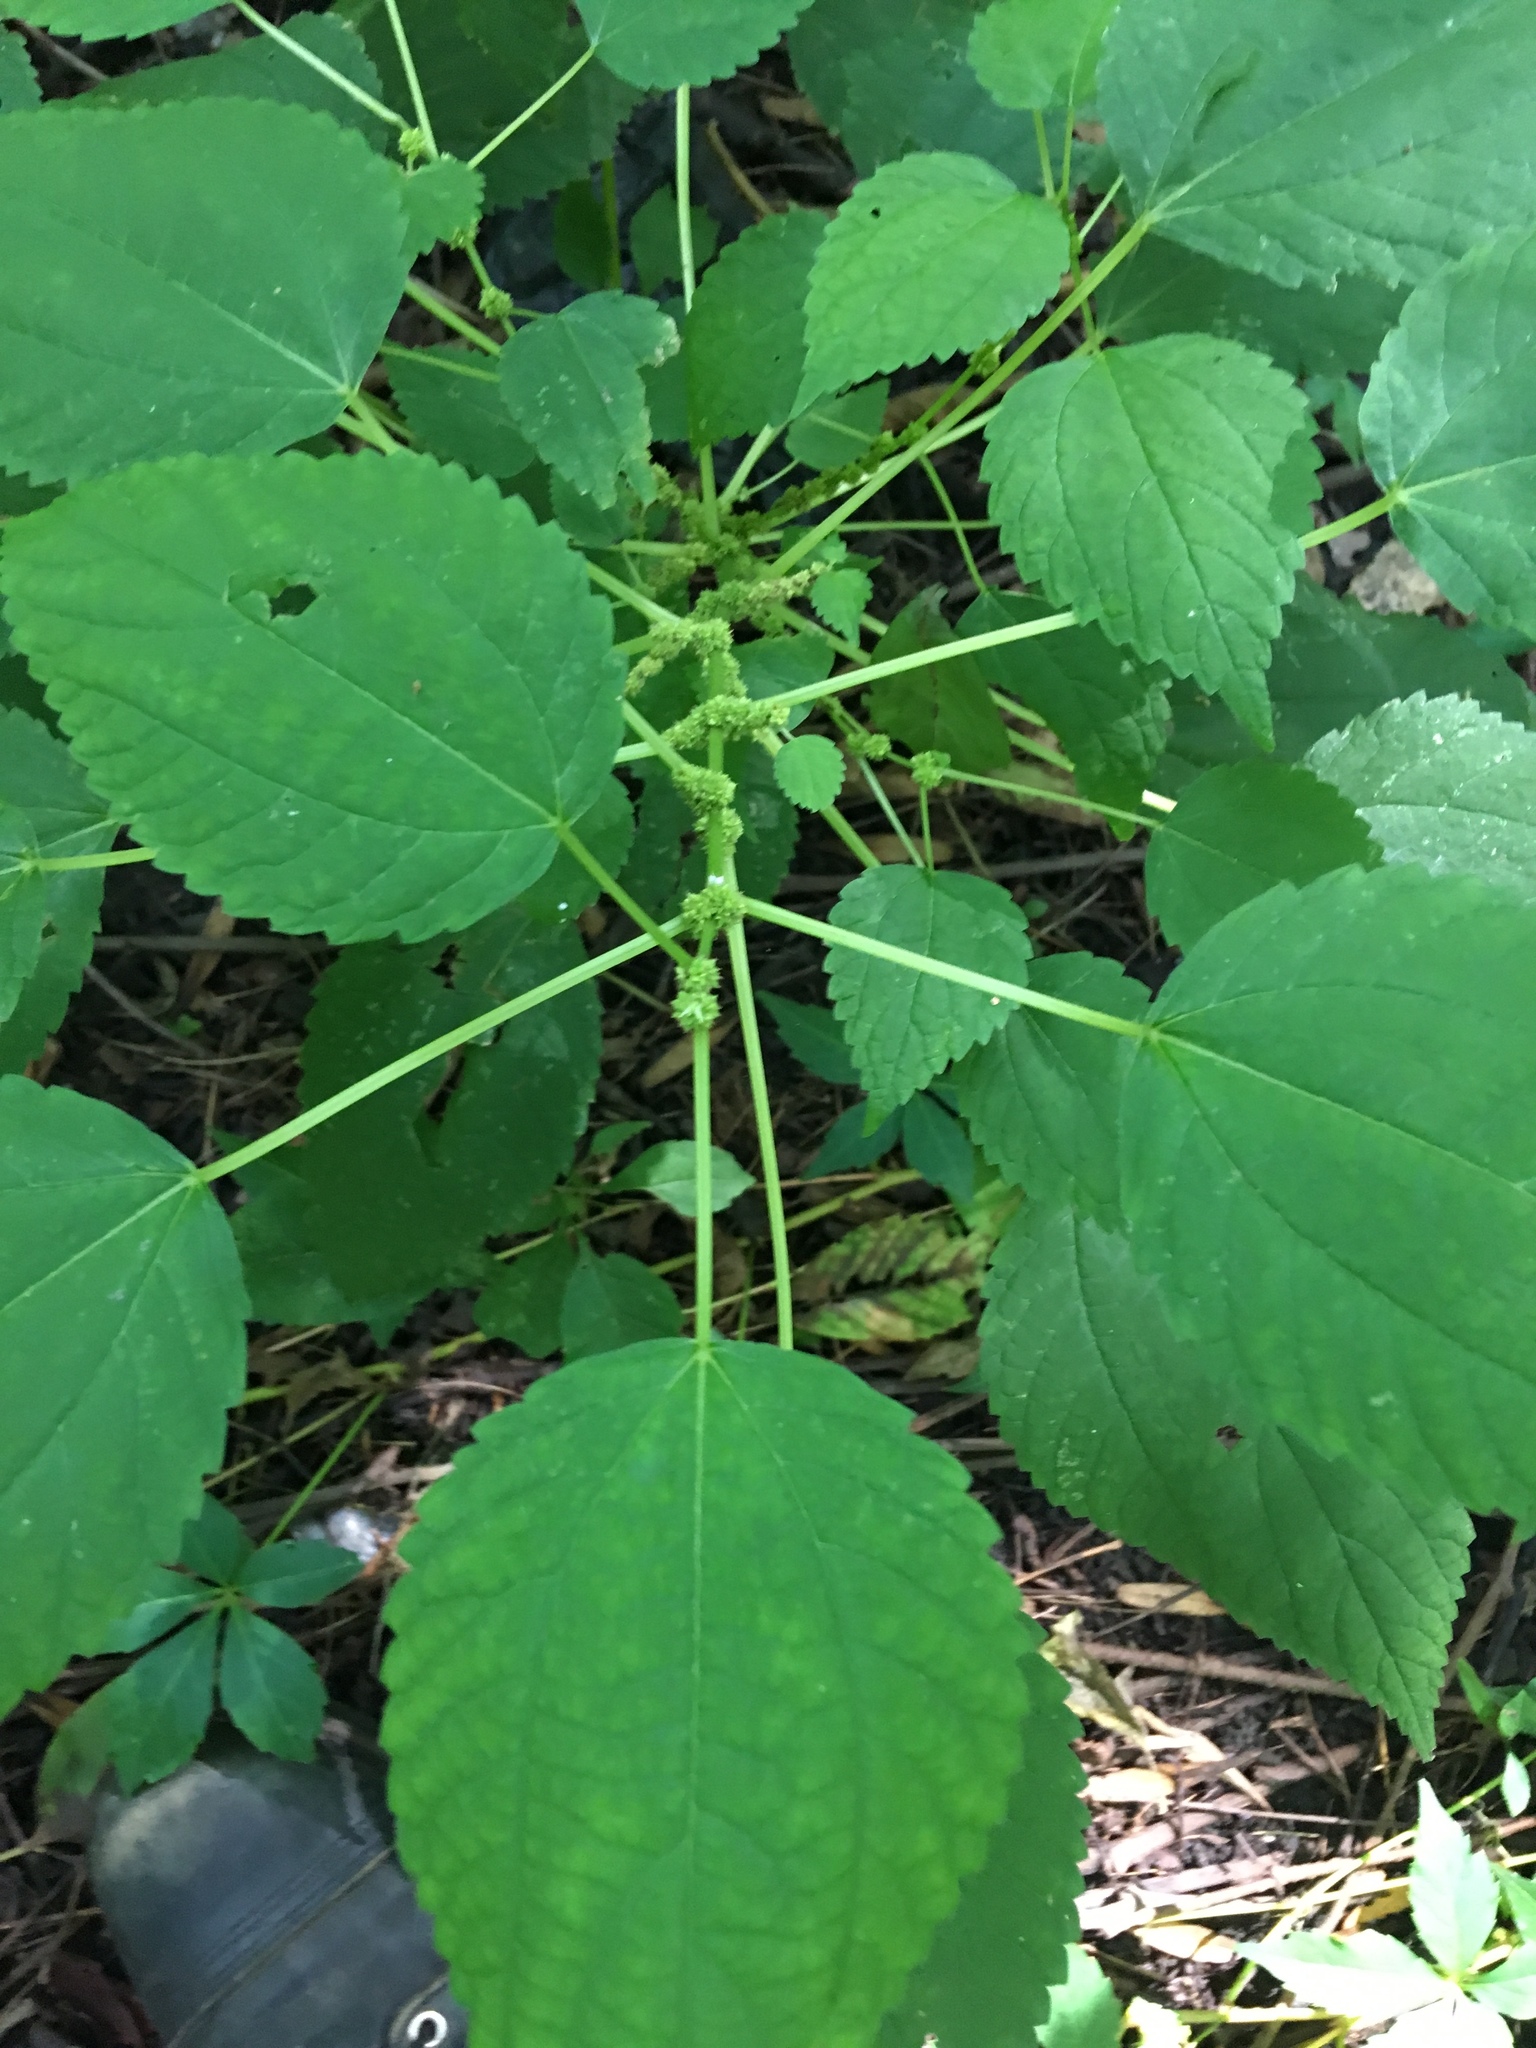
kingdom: Plantae
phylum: Tracheophyta
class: Magnoliopsida
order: Rosales
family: Urticaceae
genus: Boehmeria
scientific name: Boehmeria cylindrica
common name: Bog-hemp
